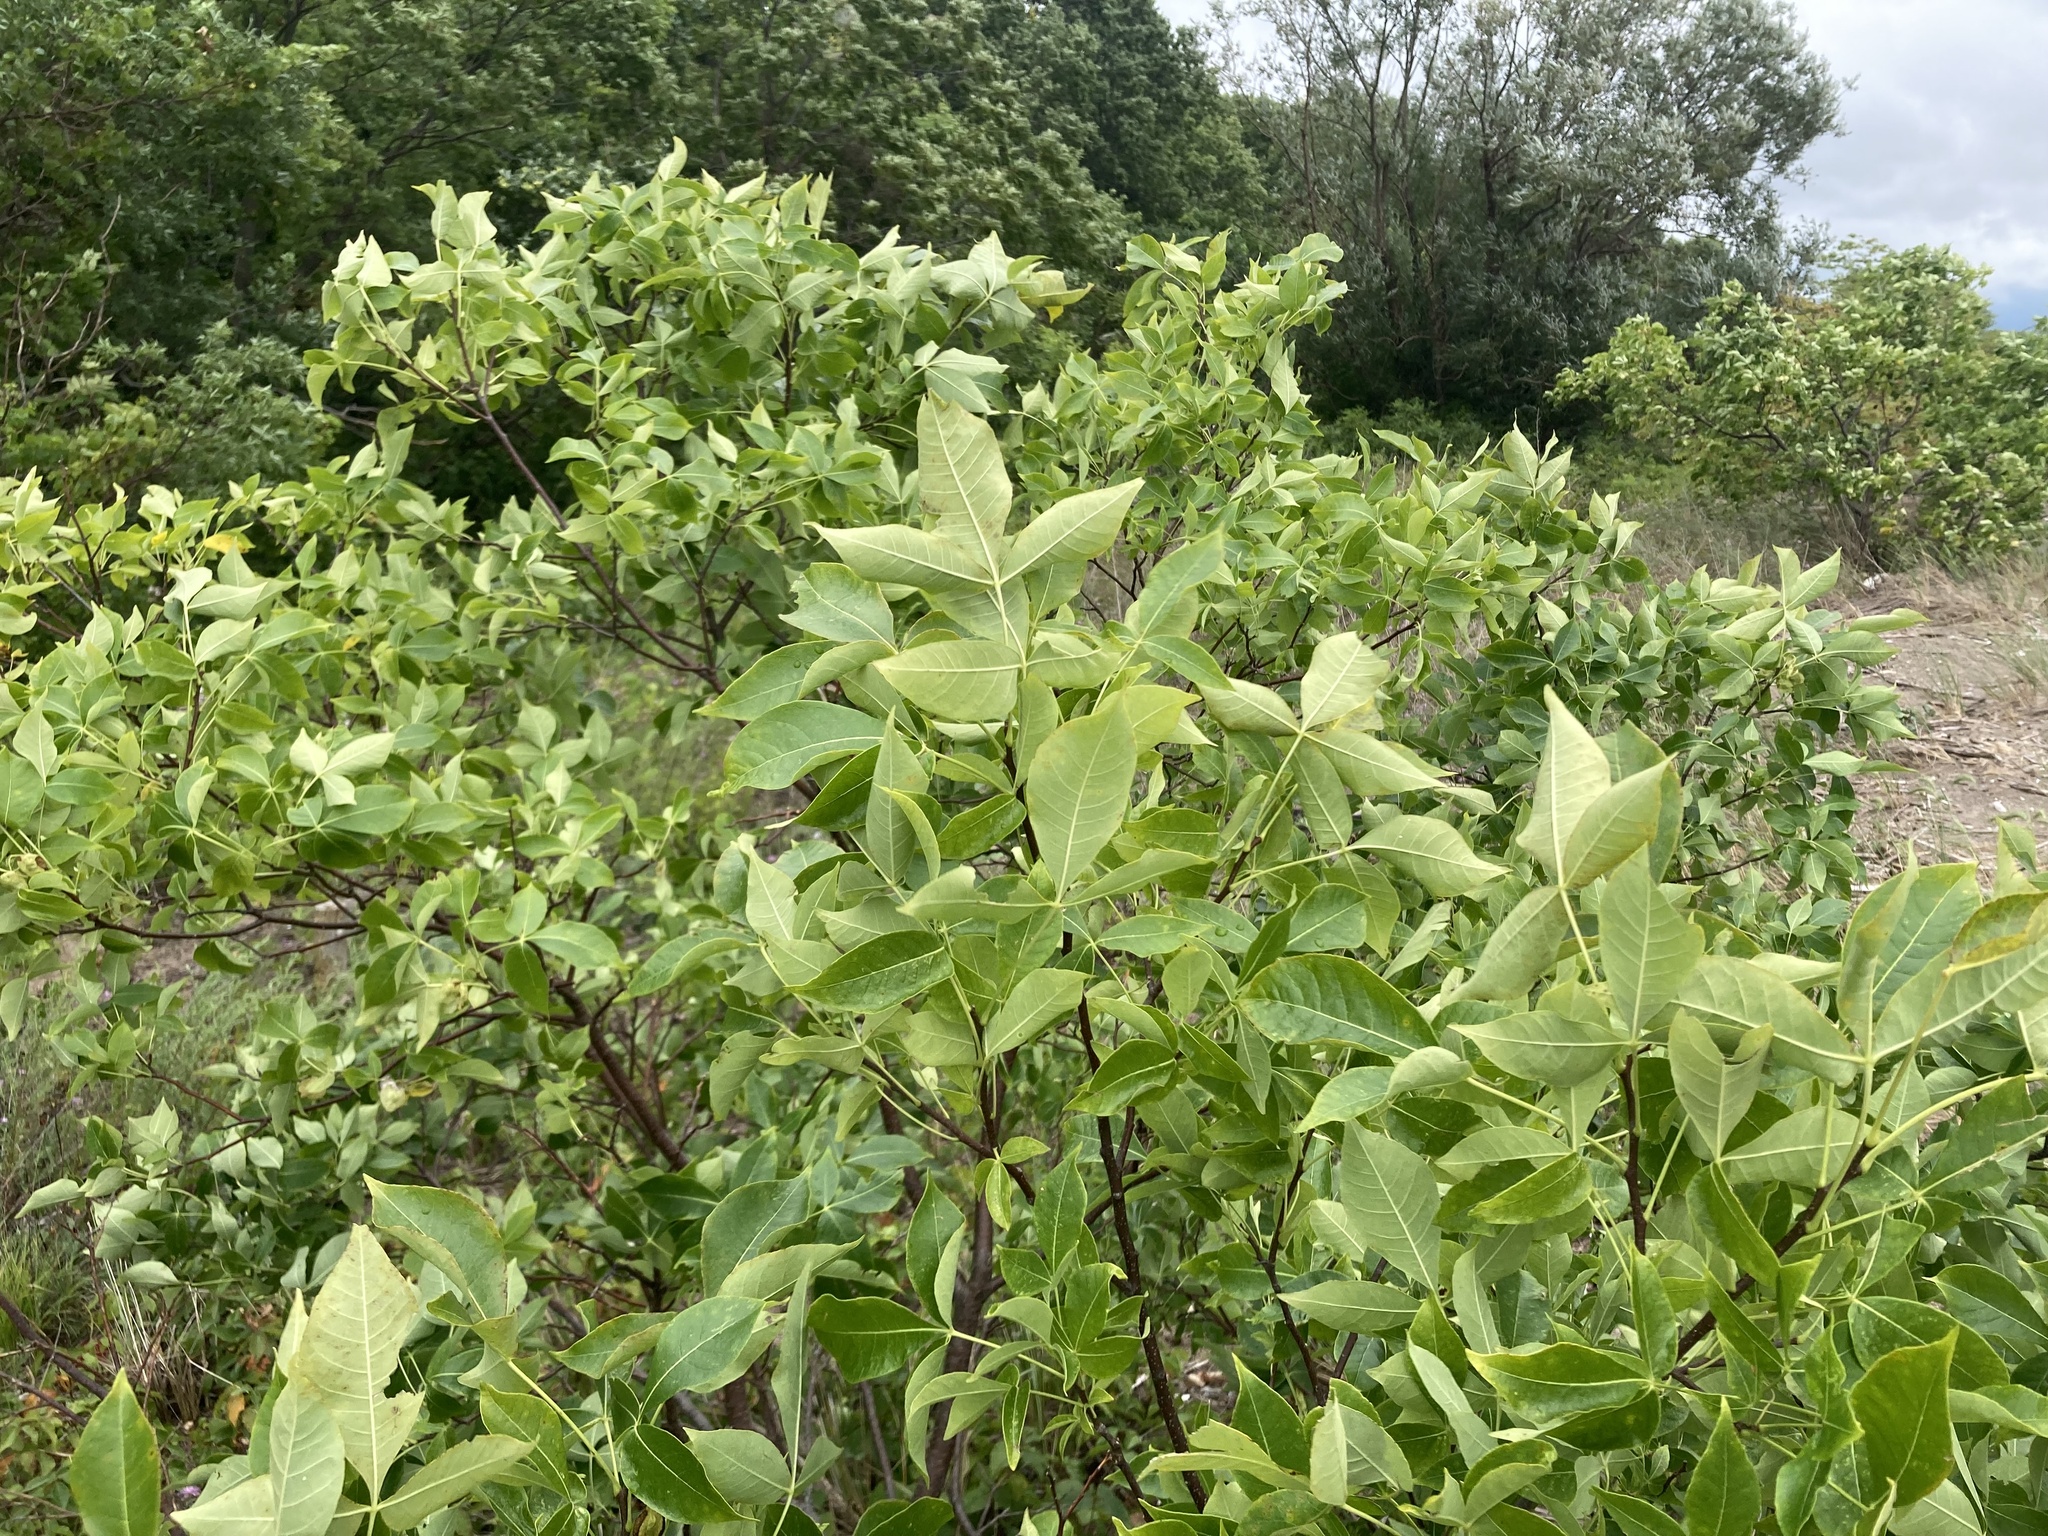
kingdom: Plantae
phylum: Tracheophyta
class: Magnoliopsida
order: Sapindales
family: Rutaceae
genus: Ptelea
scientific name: Ptelea trifoliata
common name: Common hop-tree
